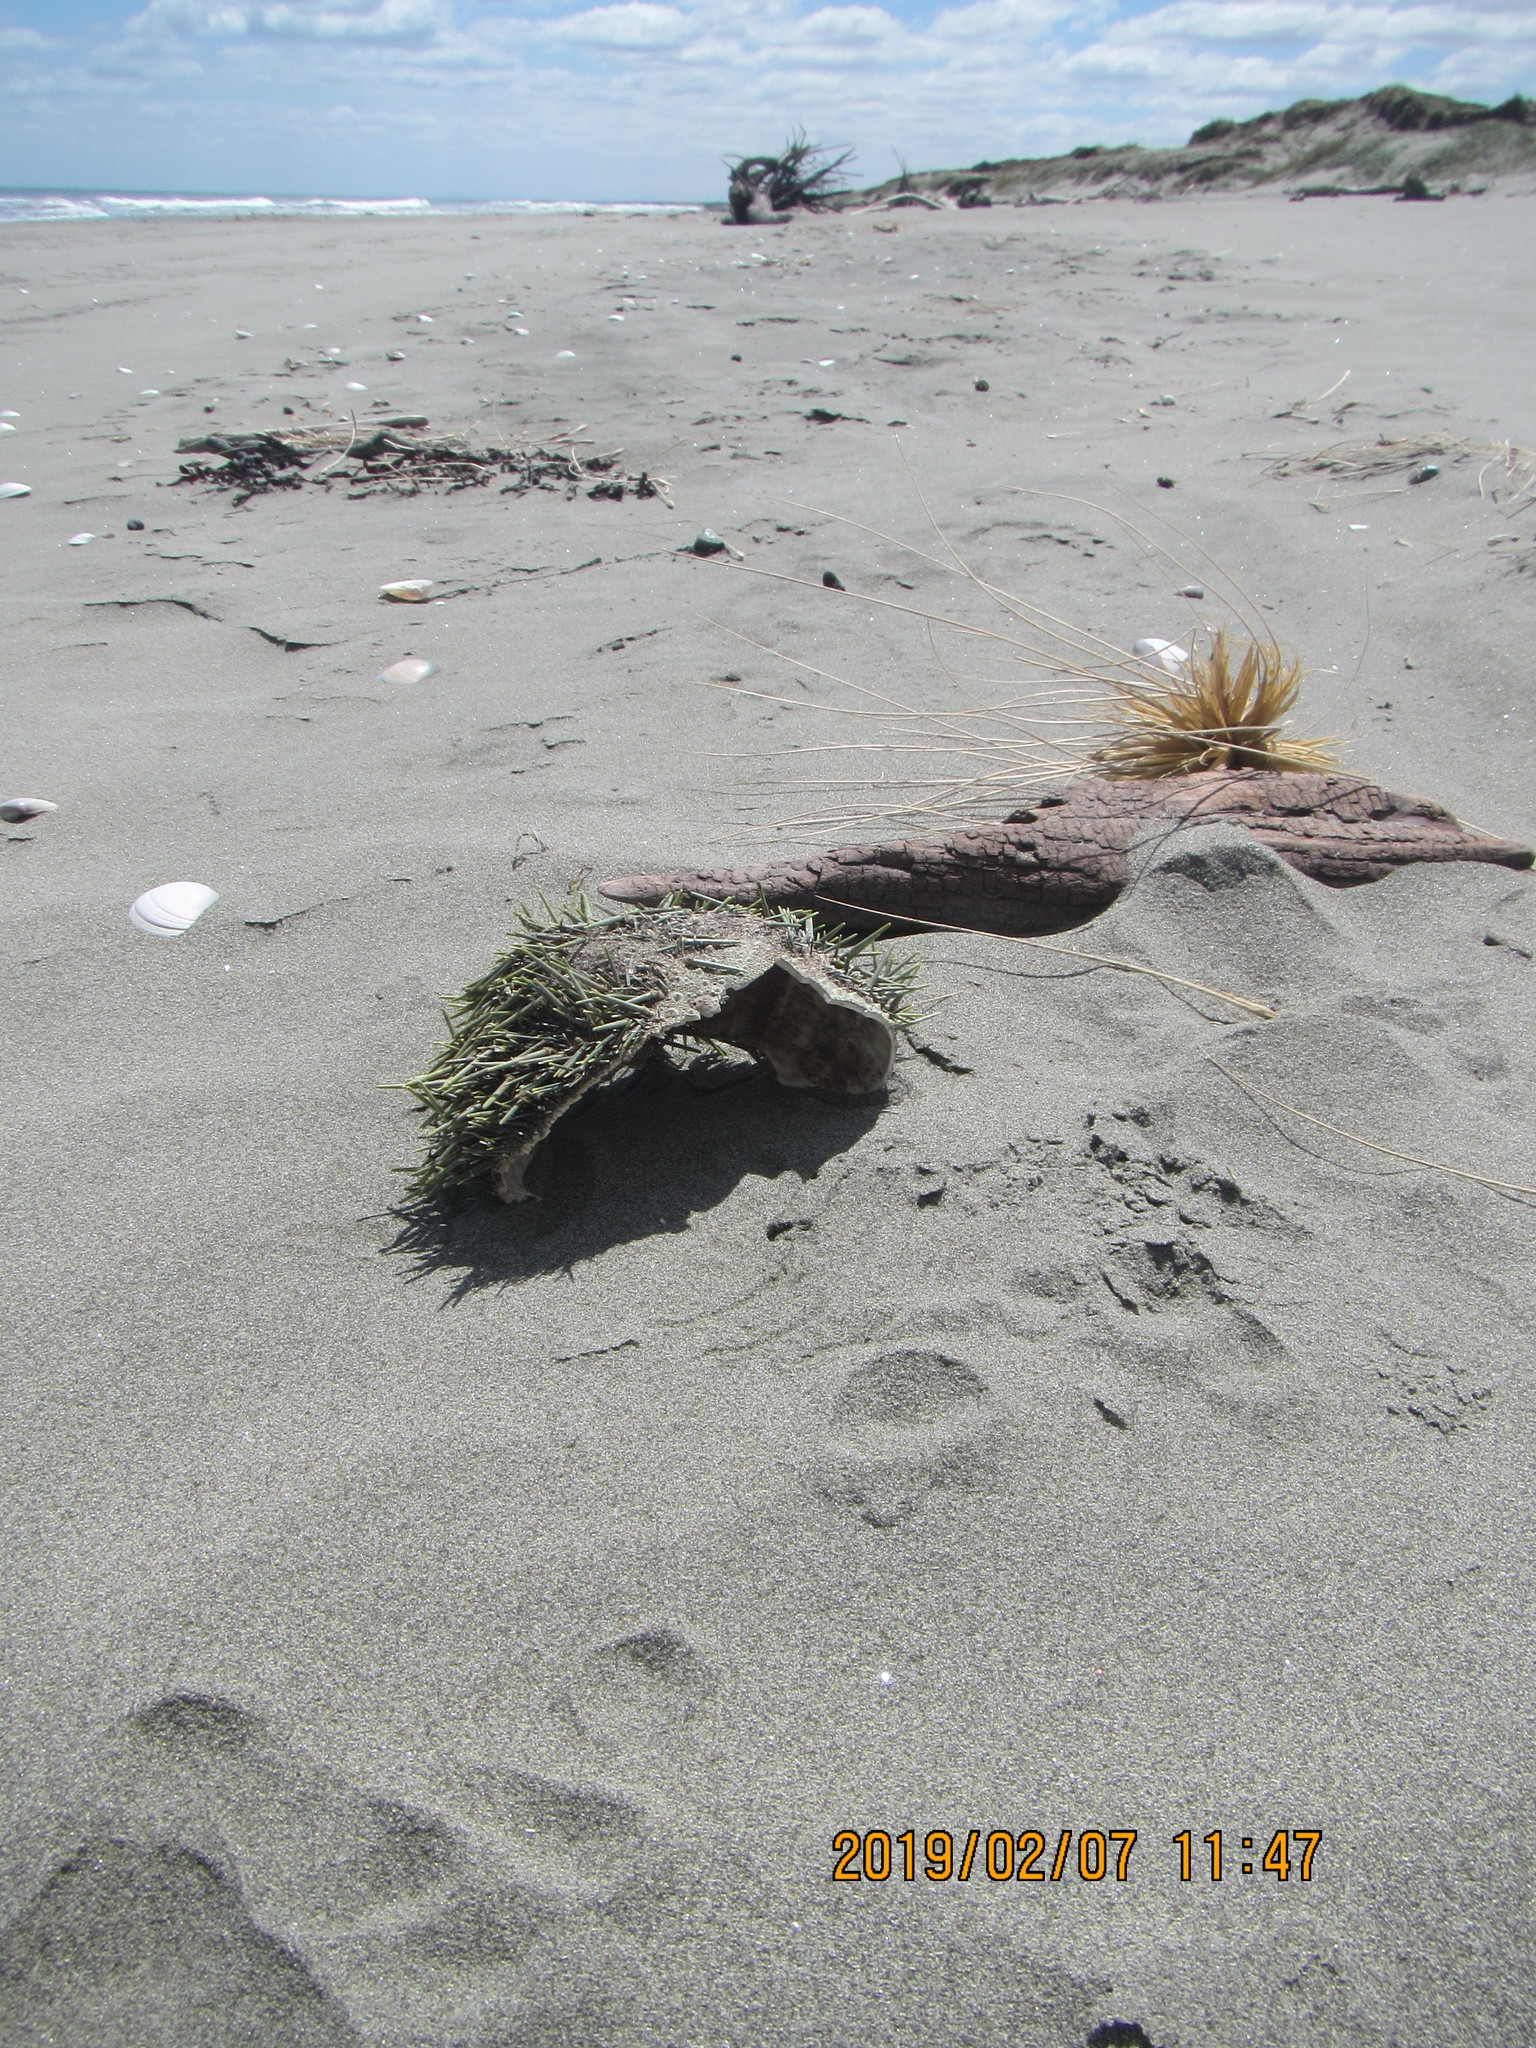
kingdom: Animalia
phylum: Echinodermata
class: Echinoidea
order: Camarodonta
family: Echinometridae
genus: Evechinus
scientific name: Evechinus chloroticus
